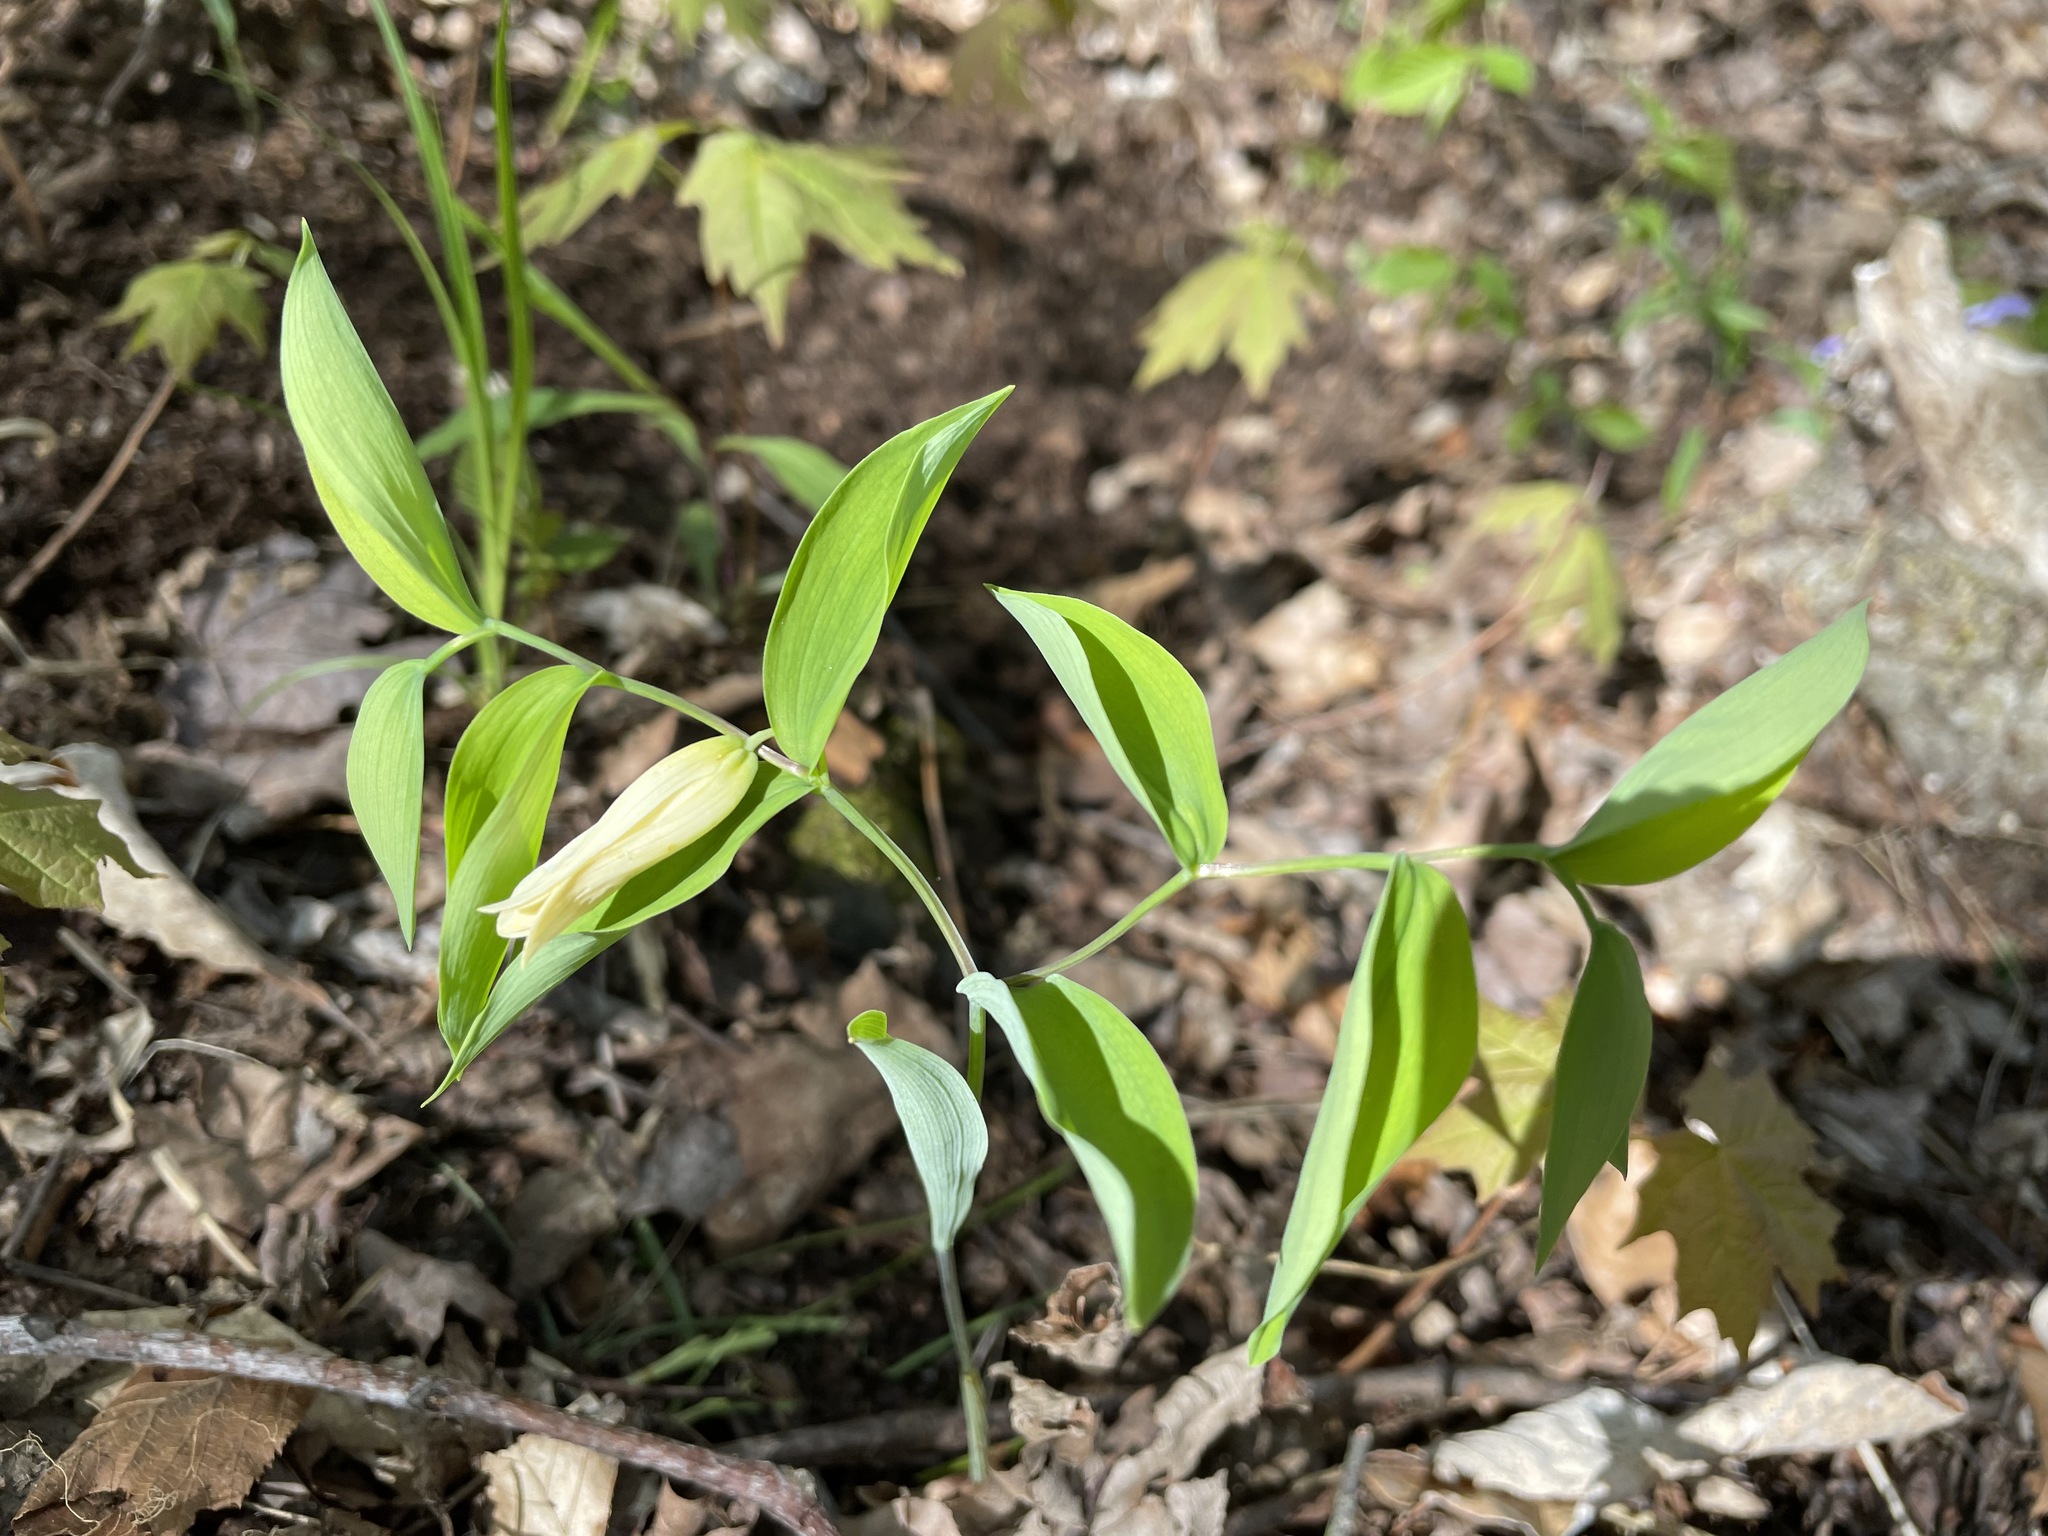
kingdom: Plantae
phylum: Tracheophyta
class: Liliopsida
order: Liliales
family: Colchicaceae
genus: Uvularia
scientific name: Uvularia sessilifolia
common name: Straw-lily
